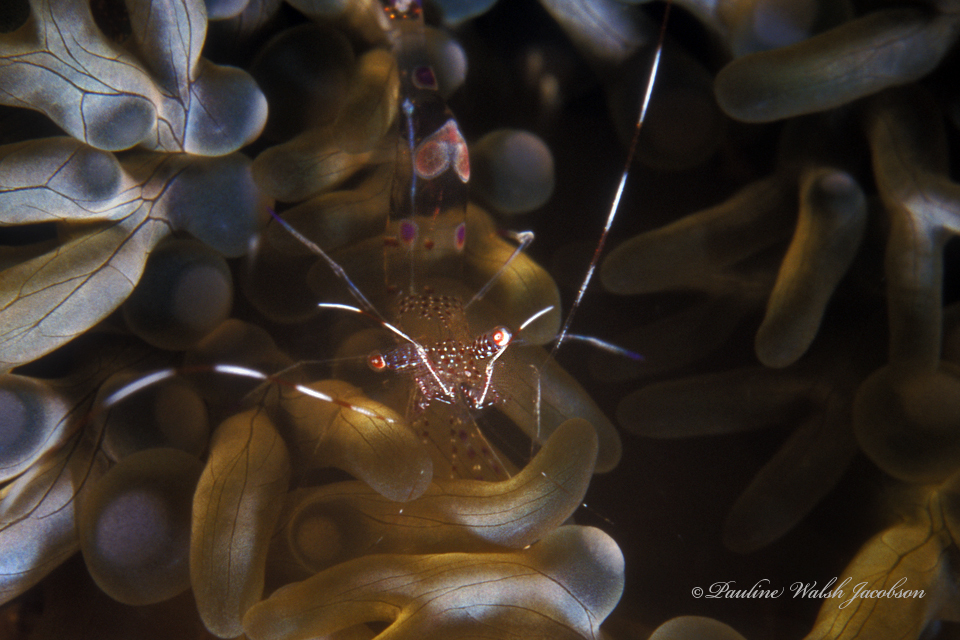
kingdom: Animalia
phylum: Arthropoda
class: Malacostraca
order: Decapoda
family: Palaemonidae
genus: Periclimenes
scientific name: Periclimenes yucatanicus
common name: Spotted cleaning shrimp
